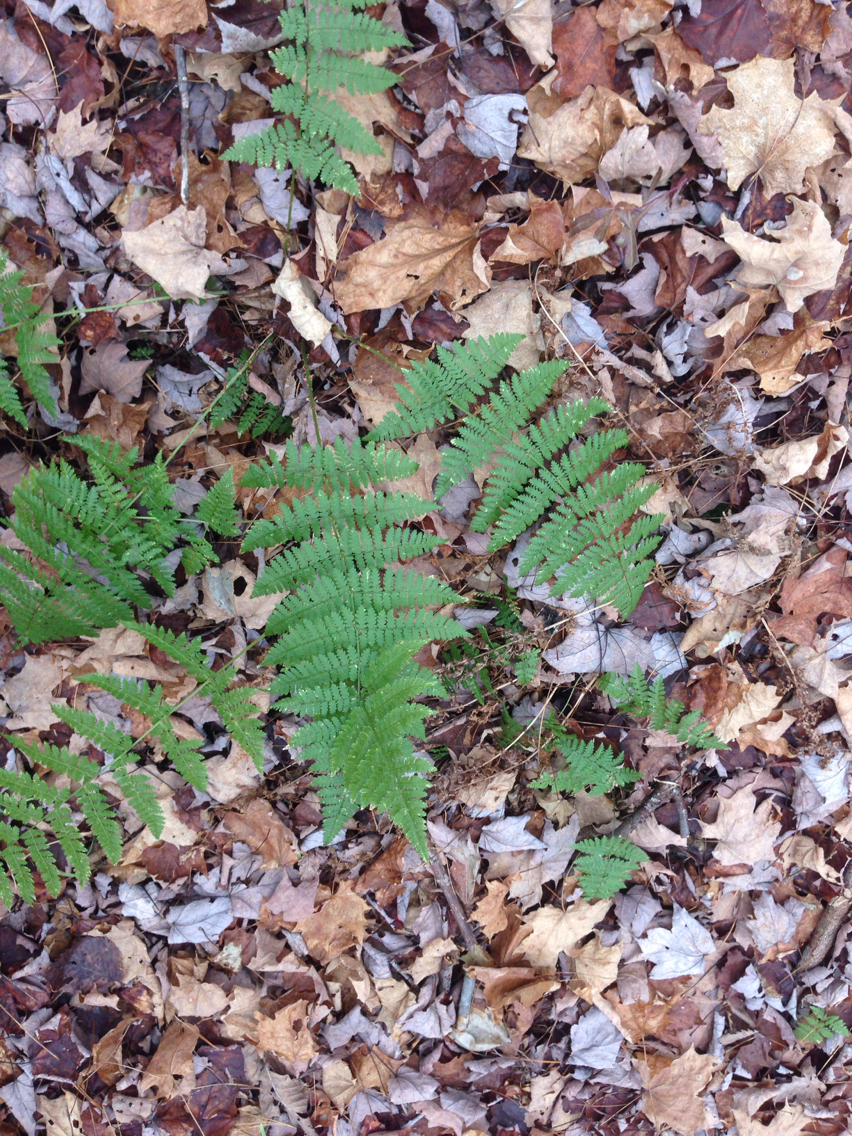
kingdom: Plantae
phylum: Tracheophyta
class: Polypodiopsida
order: Polypodiales
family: Dryopteridaceae
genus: Dryopteris
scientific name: Dryopteris intermedia
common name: Evergreen wood fern
